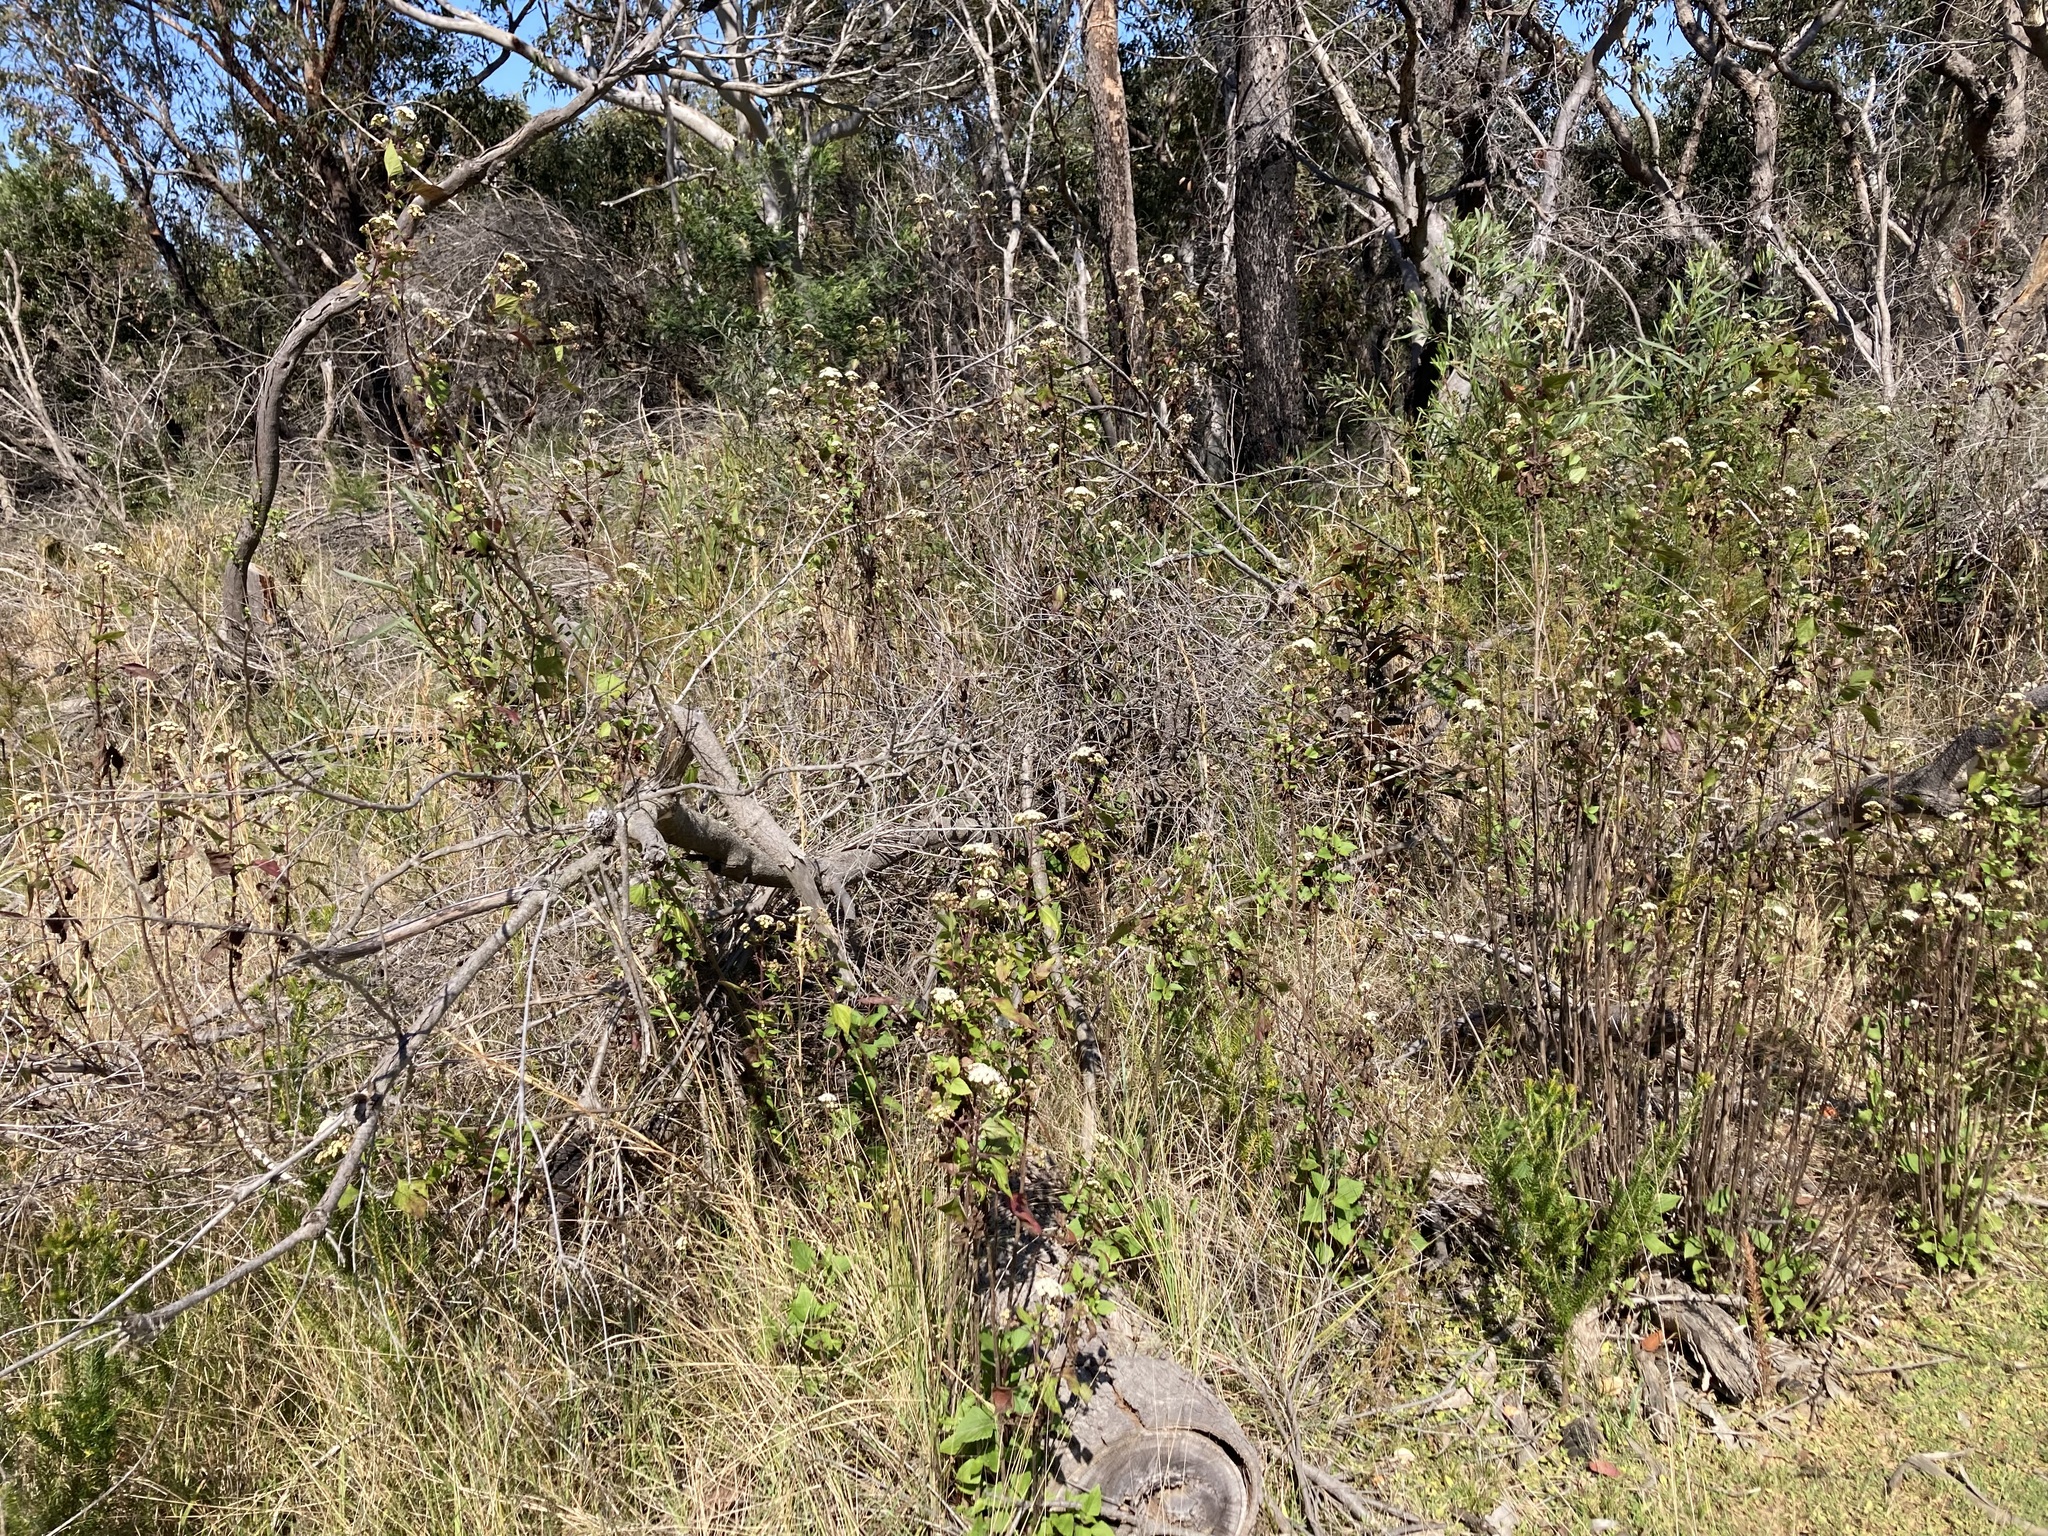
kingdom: Plantae
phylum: Tracheophyta
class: Magnoliopsida
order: Asterales
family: Asteraceae
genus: Ageratina
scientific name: Ageratina adenophora
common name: Sticky snakeroot
